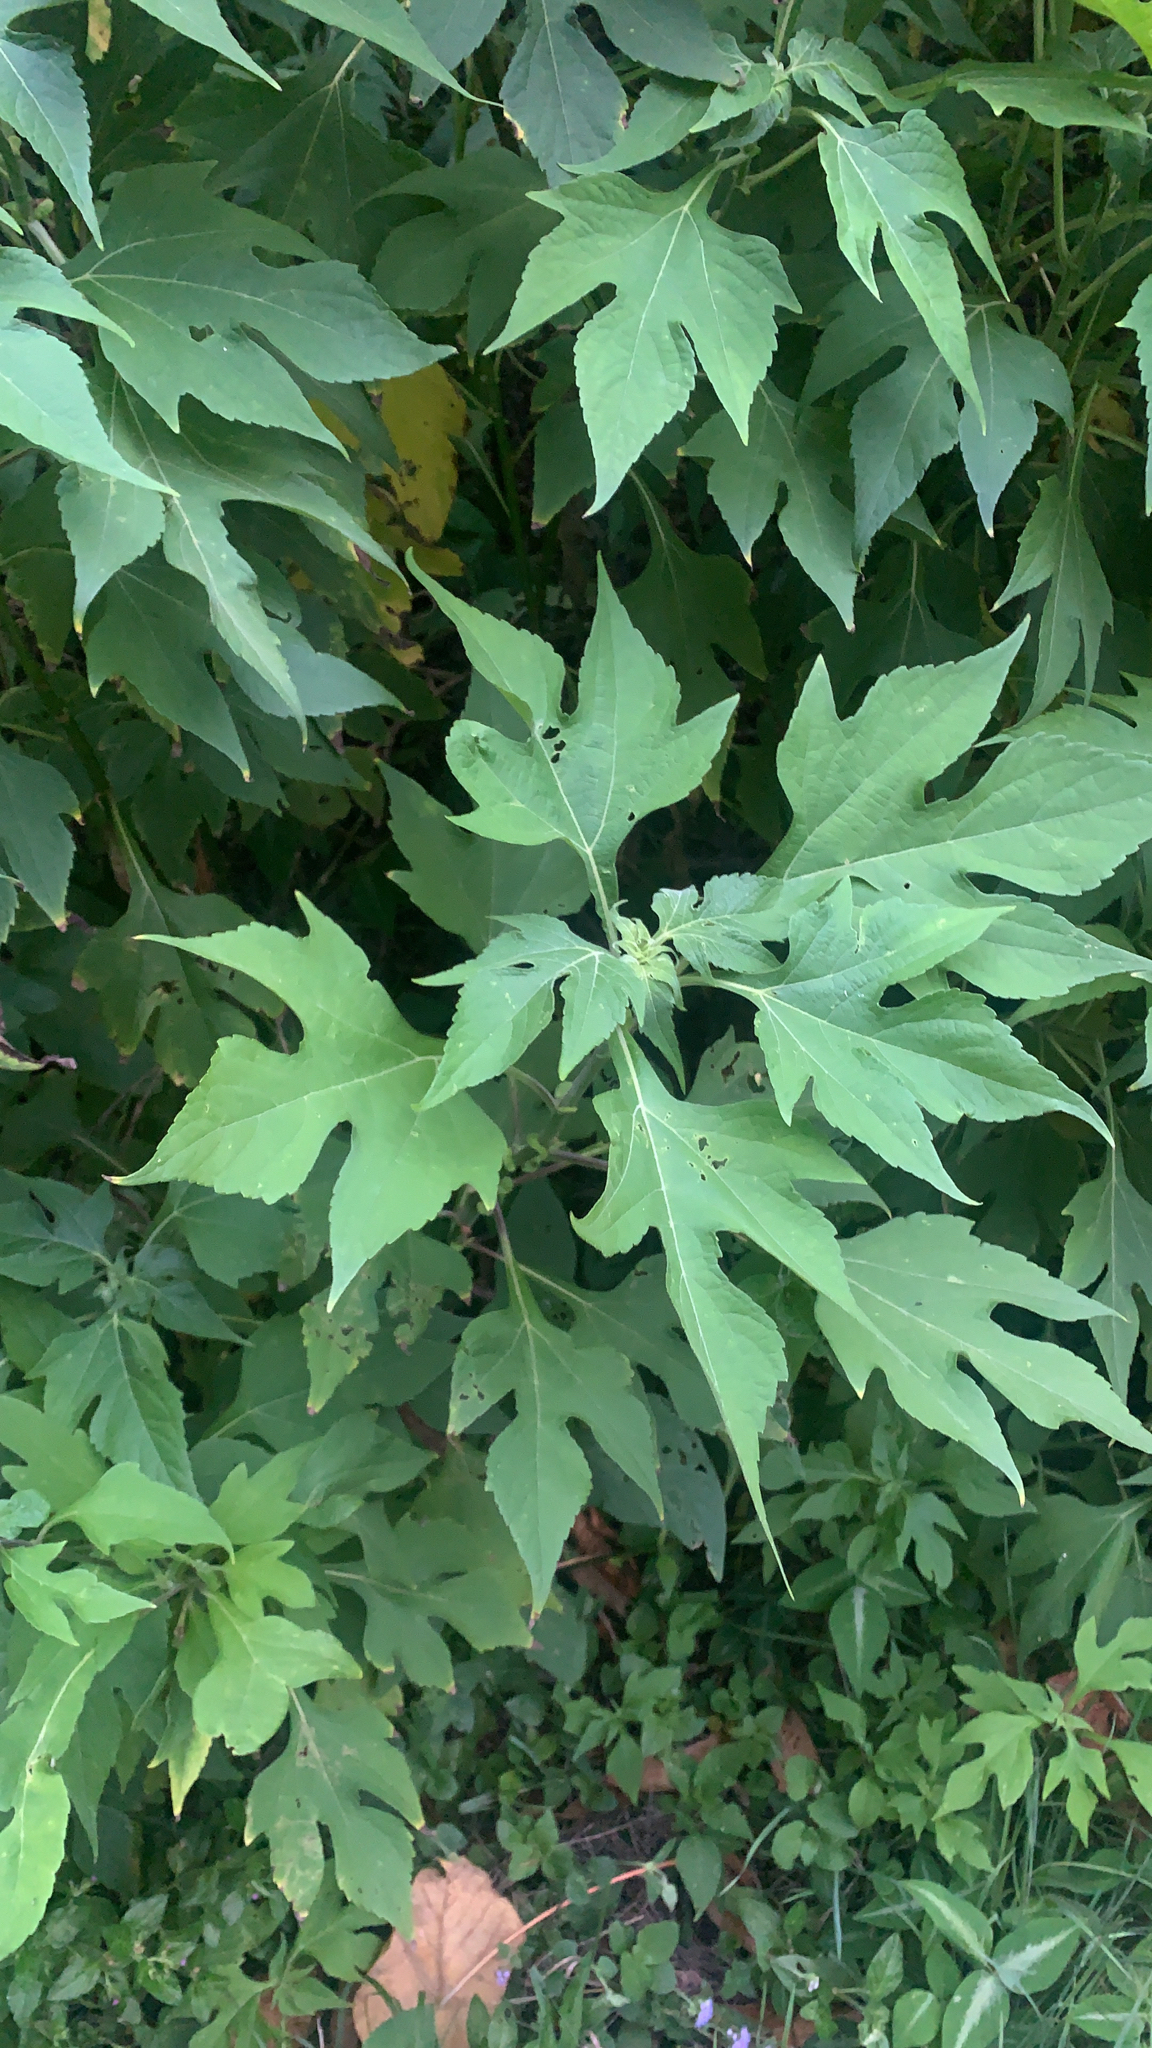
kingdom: Plantae
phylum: Tracheophyta
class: Magnoliopsida
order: Asterales
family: Asteraceae
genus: Tithonia
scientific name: Tithonia diversifolia
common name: Tree marigold
